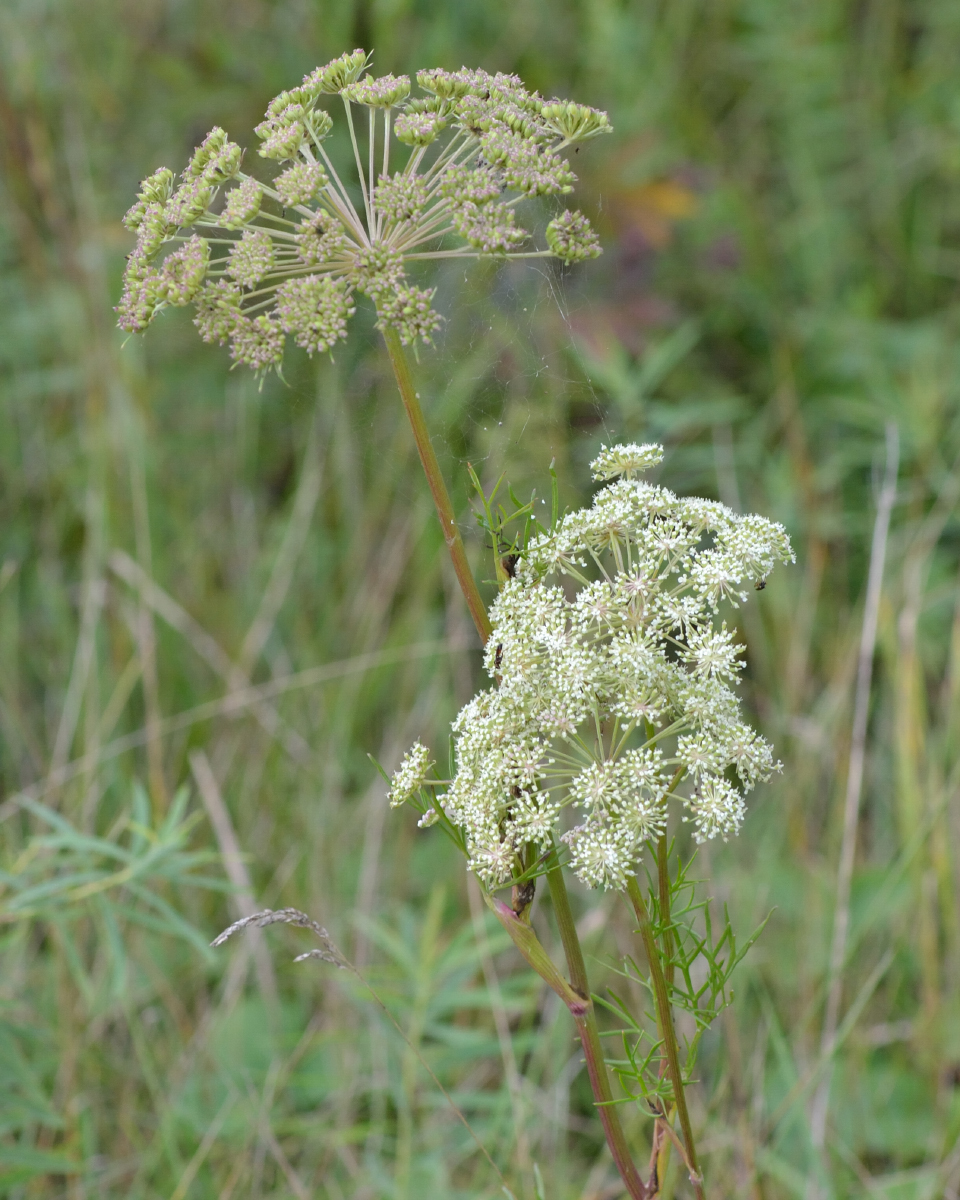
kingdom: Plantae
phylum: Tracheophyta
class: Magnoliopsida
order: Apiales
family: Apiaceae
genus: Seseli
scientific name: Seseli annuum
